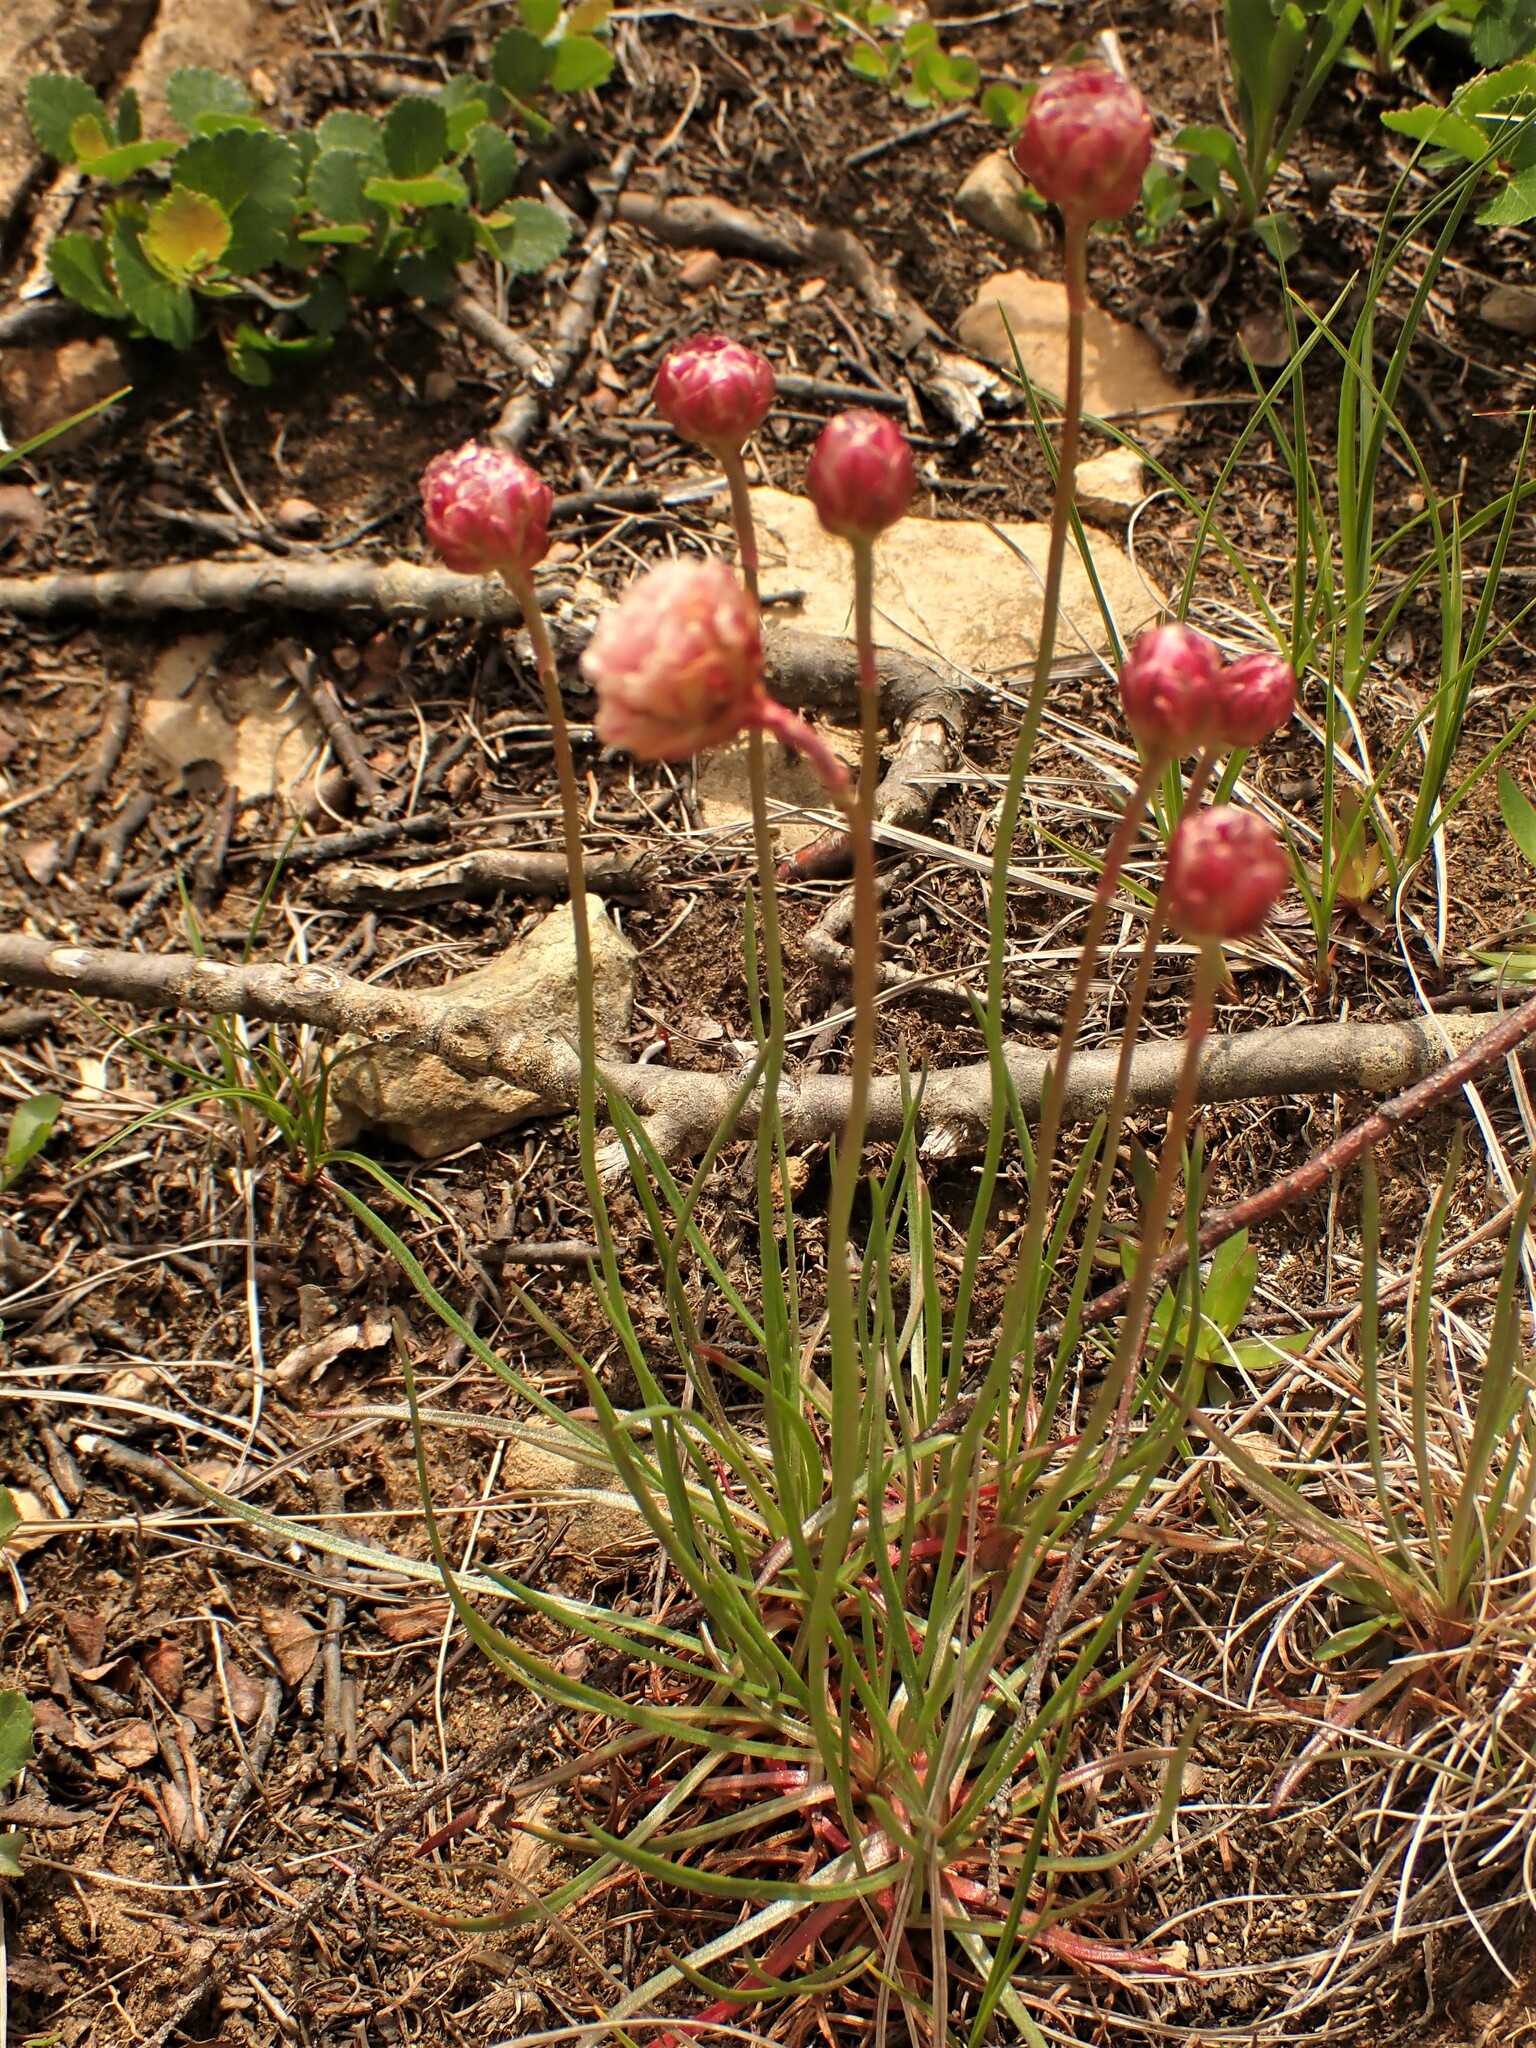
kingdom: Plantae
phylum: Tracheophyta
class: Magnoliopsida
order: Caryophyllales
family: Plumbaginaceae
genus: Armeria
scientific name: Armeria maritima
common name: Thrift
